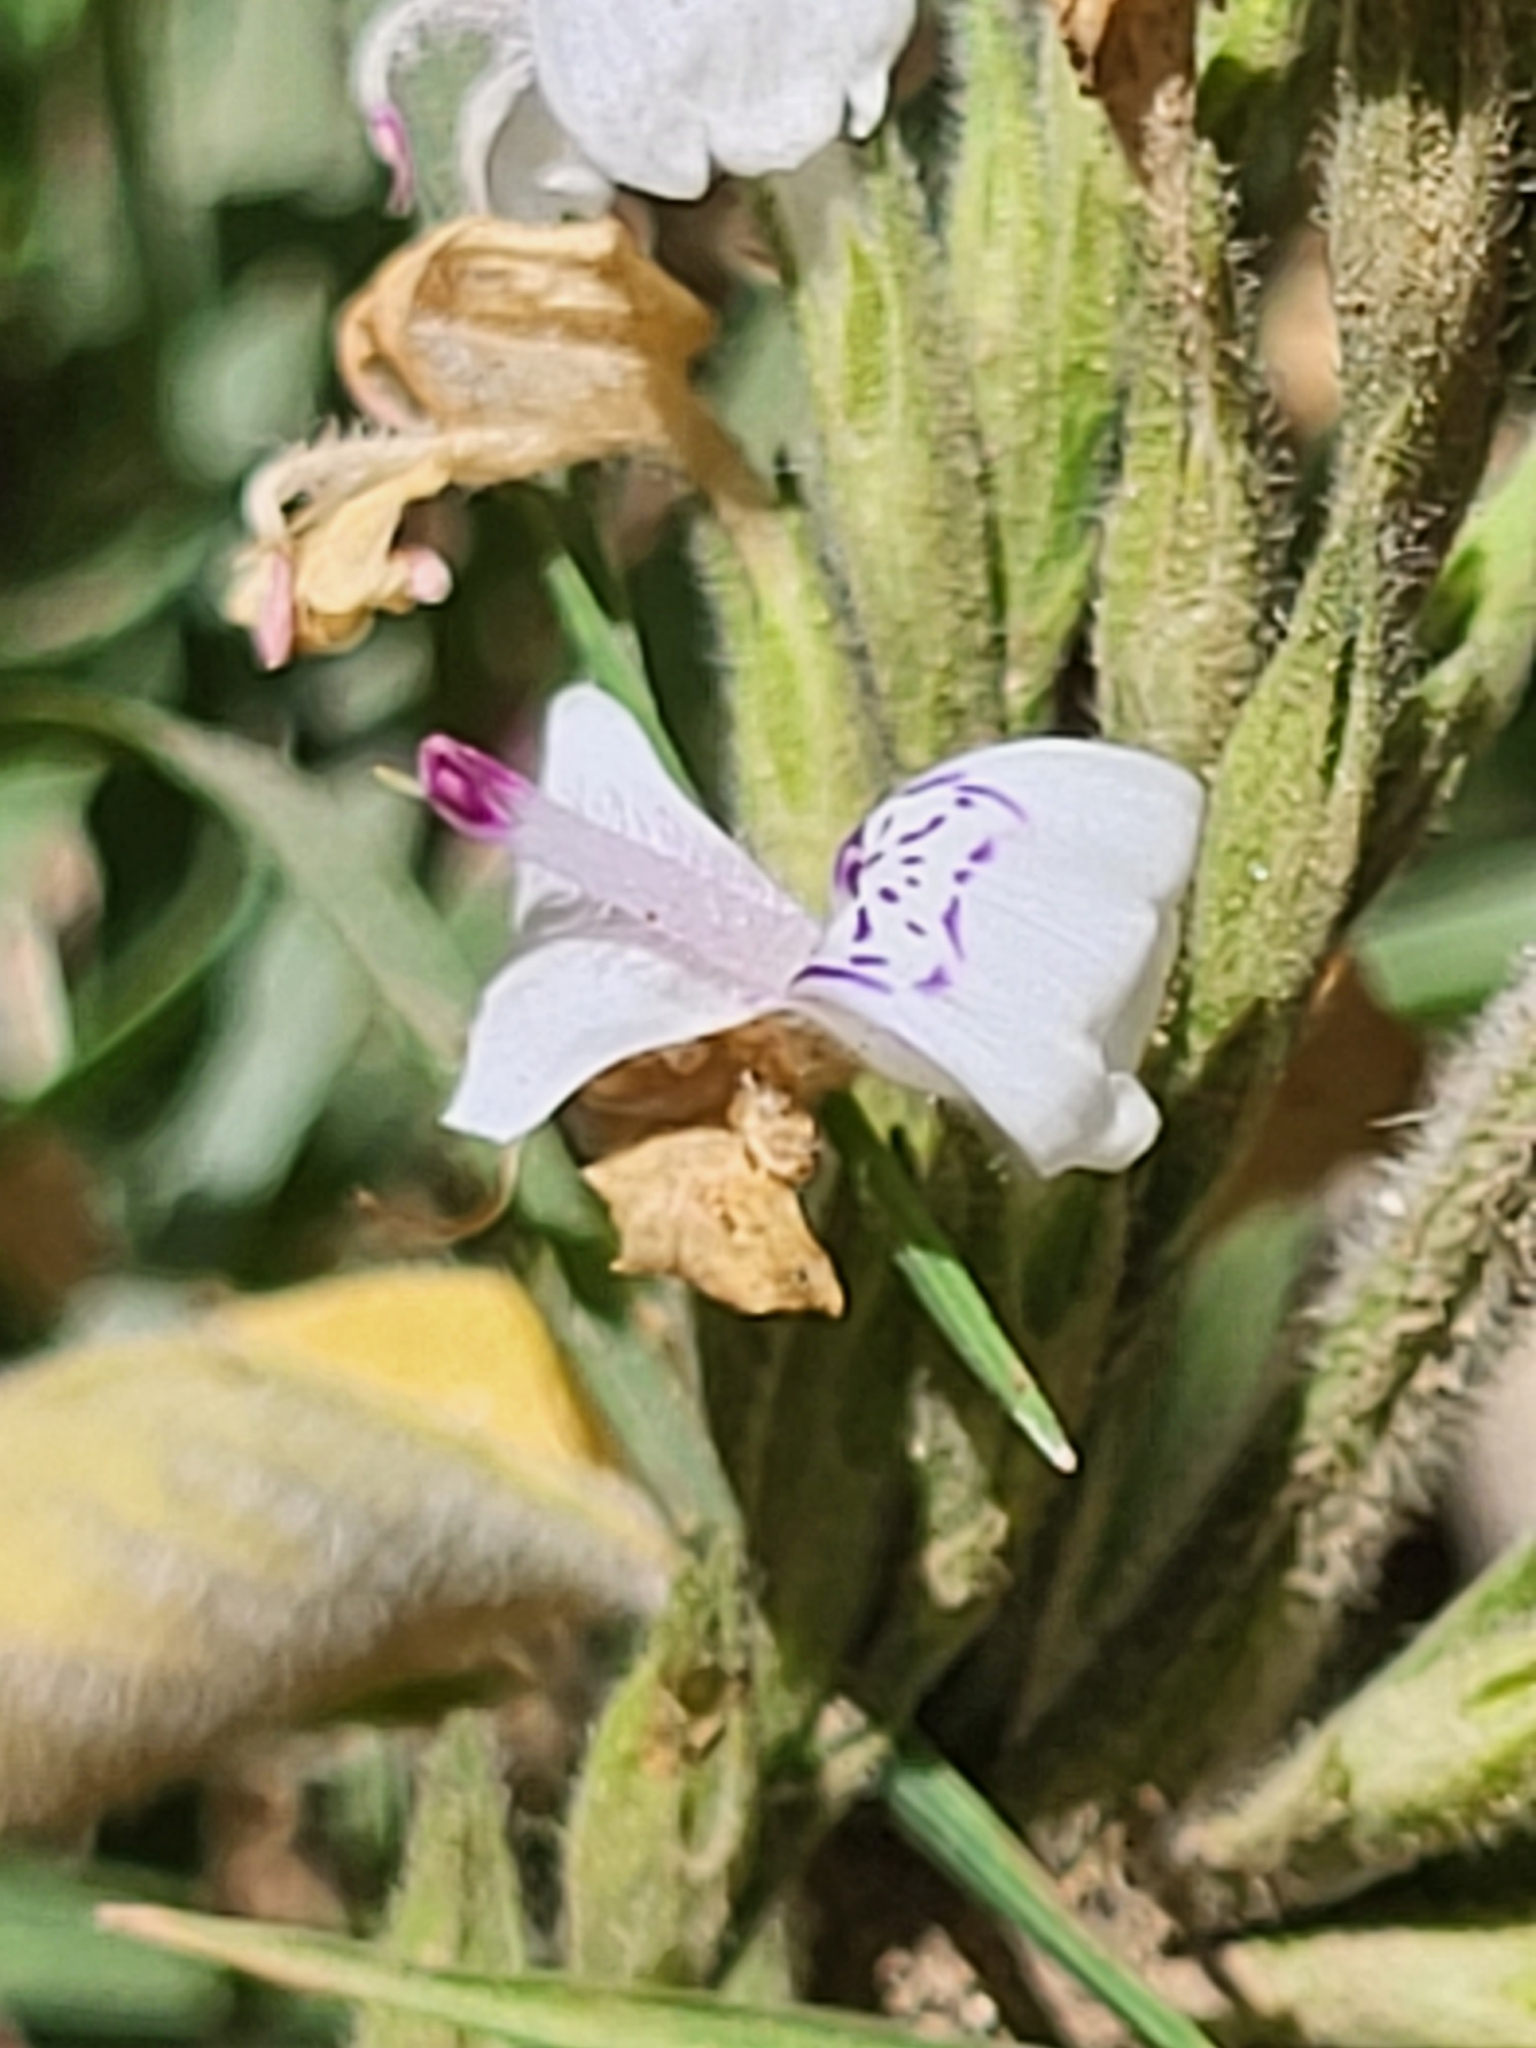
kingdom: Plantae
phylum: Tracheophyta
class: Magnoliopsida
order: Lamiales
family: Acanthaceae
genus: Hypoestes
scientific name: Hypoestes forskaolii
